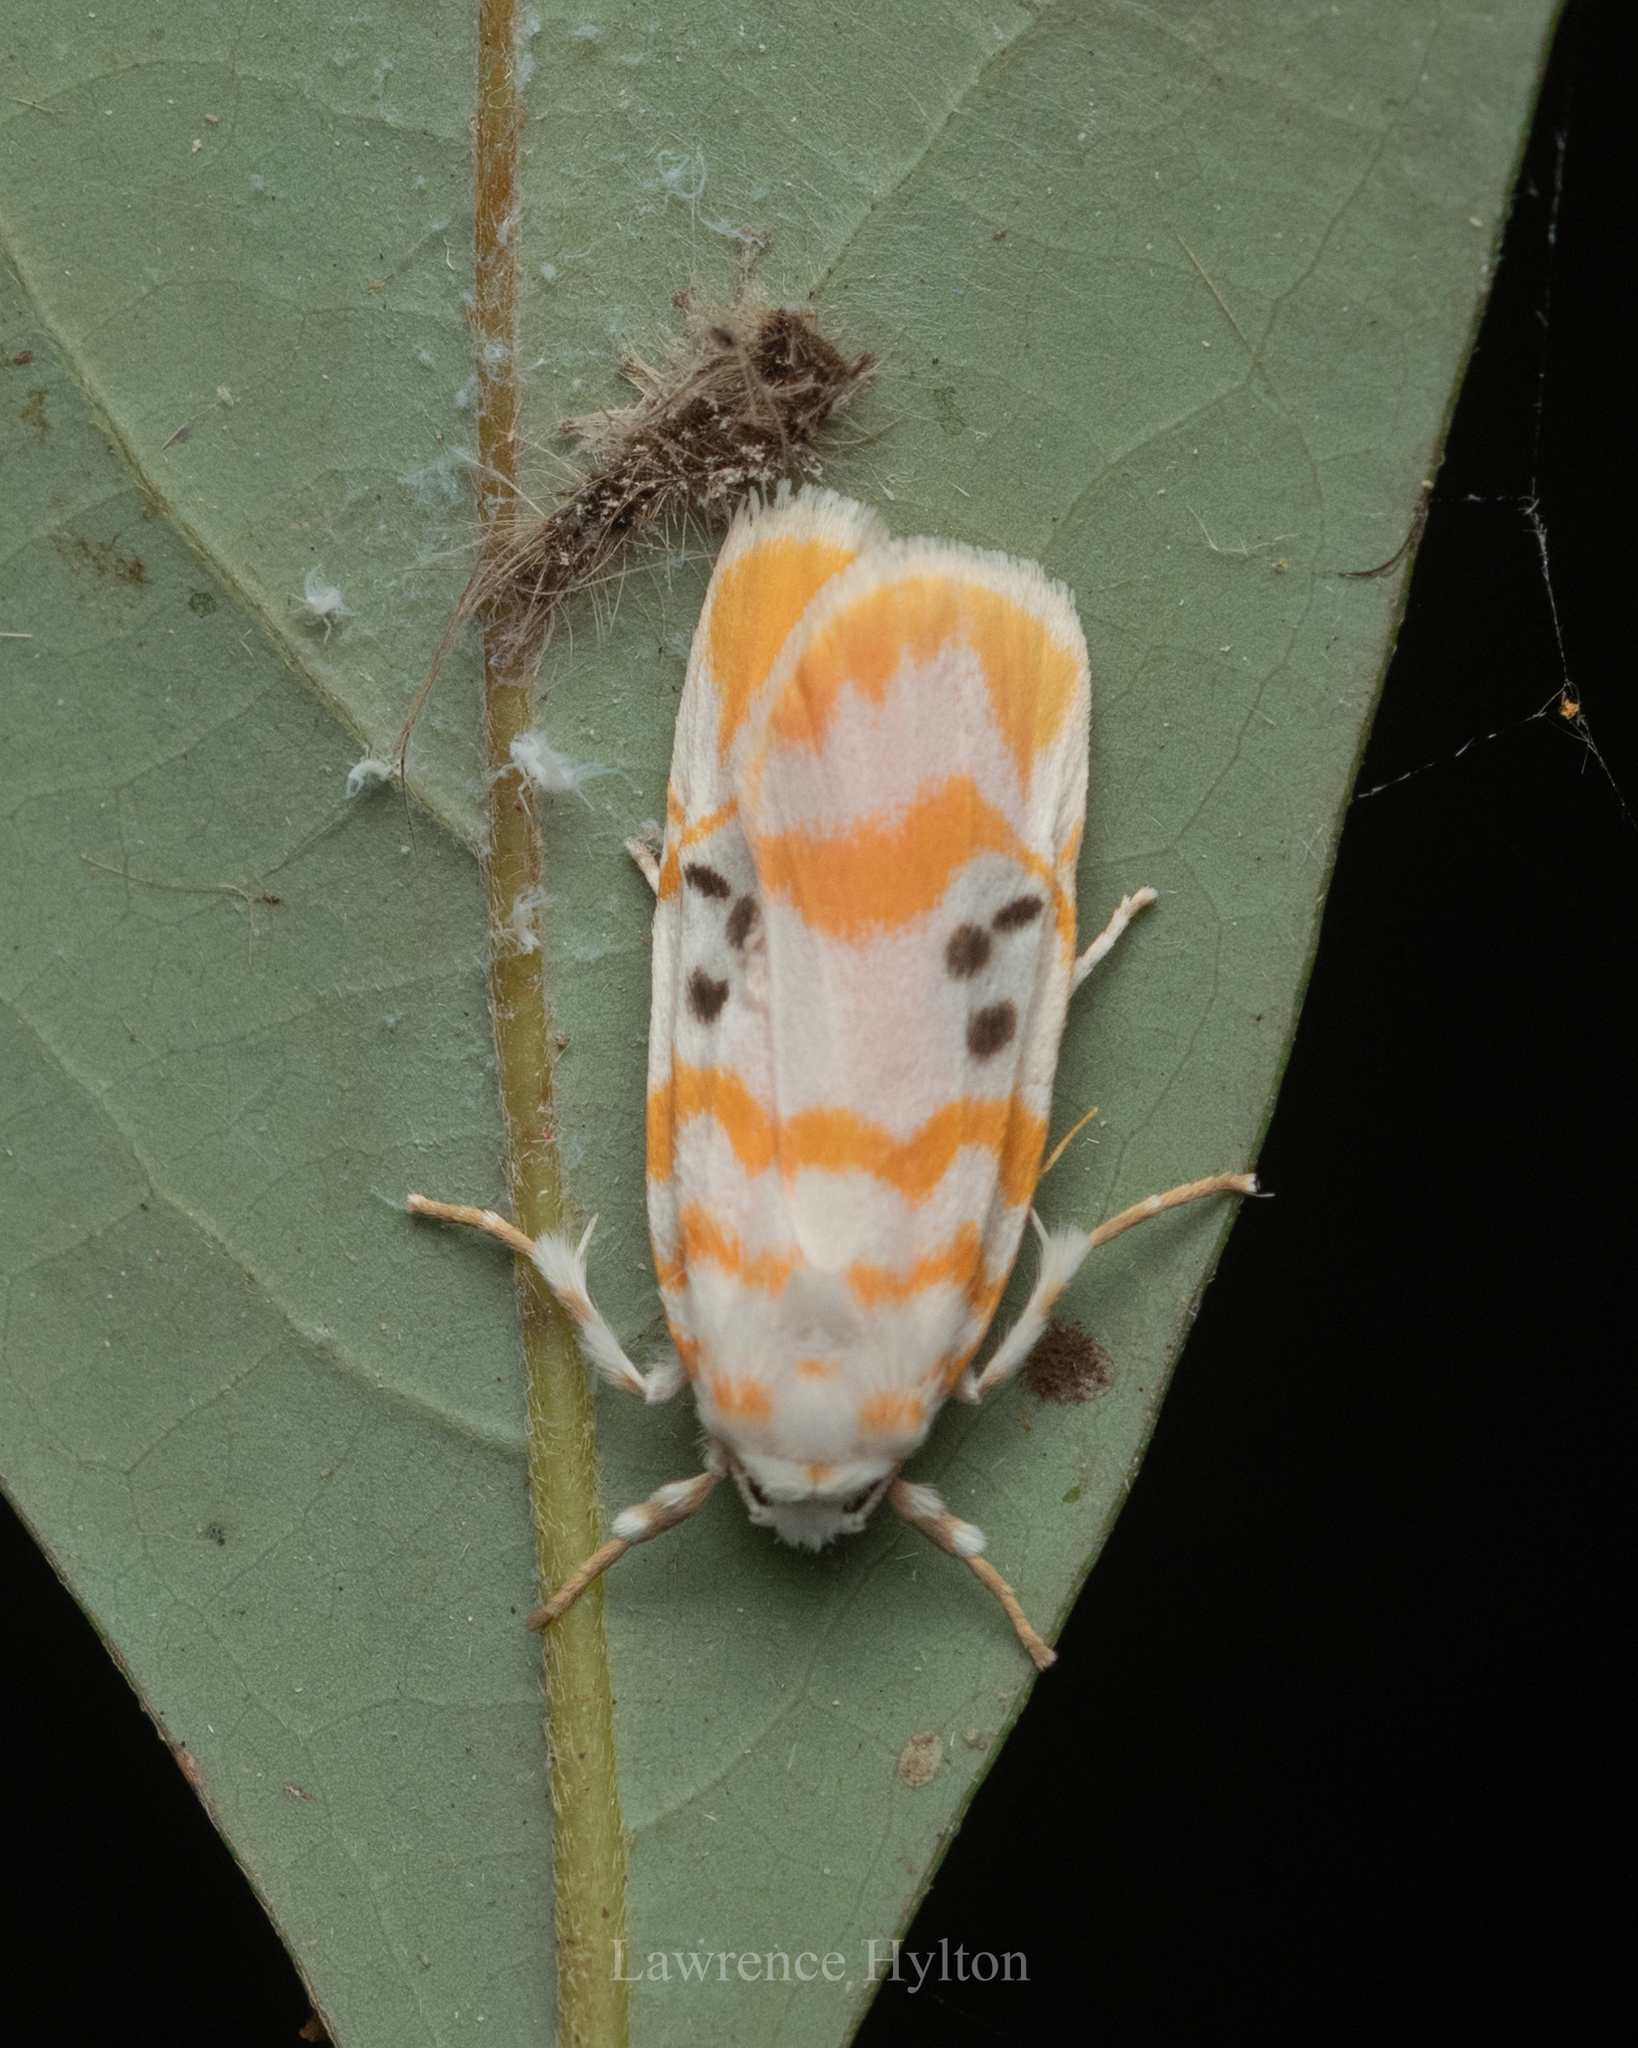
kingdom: Animalia
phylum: Arthropoda
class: Insecta
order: Lepidoptera
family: Erebidae
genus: Cyana
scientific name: Cyana interrogationis
